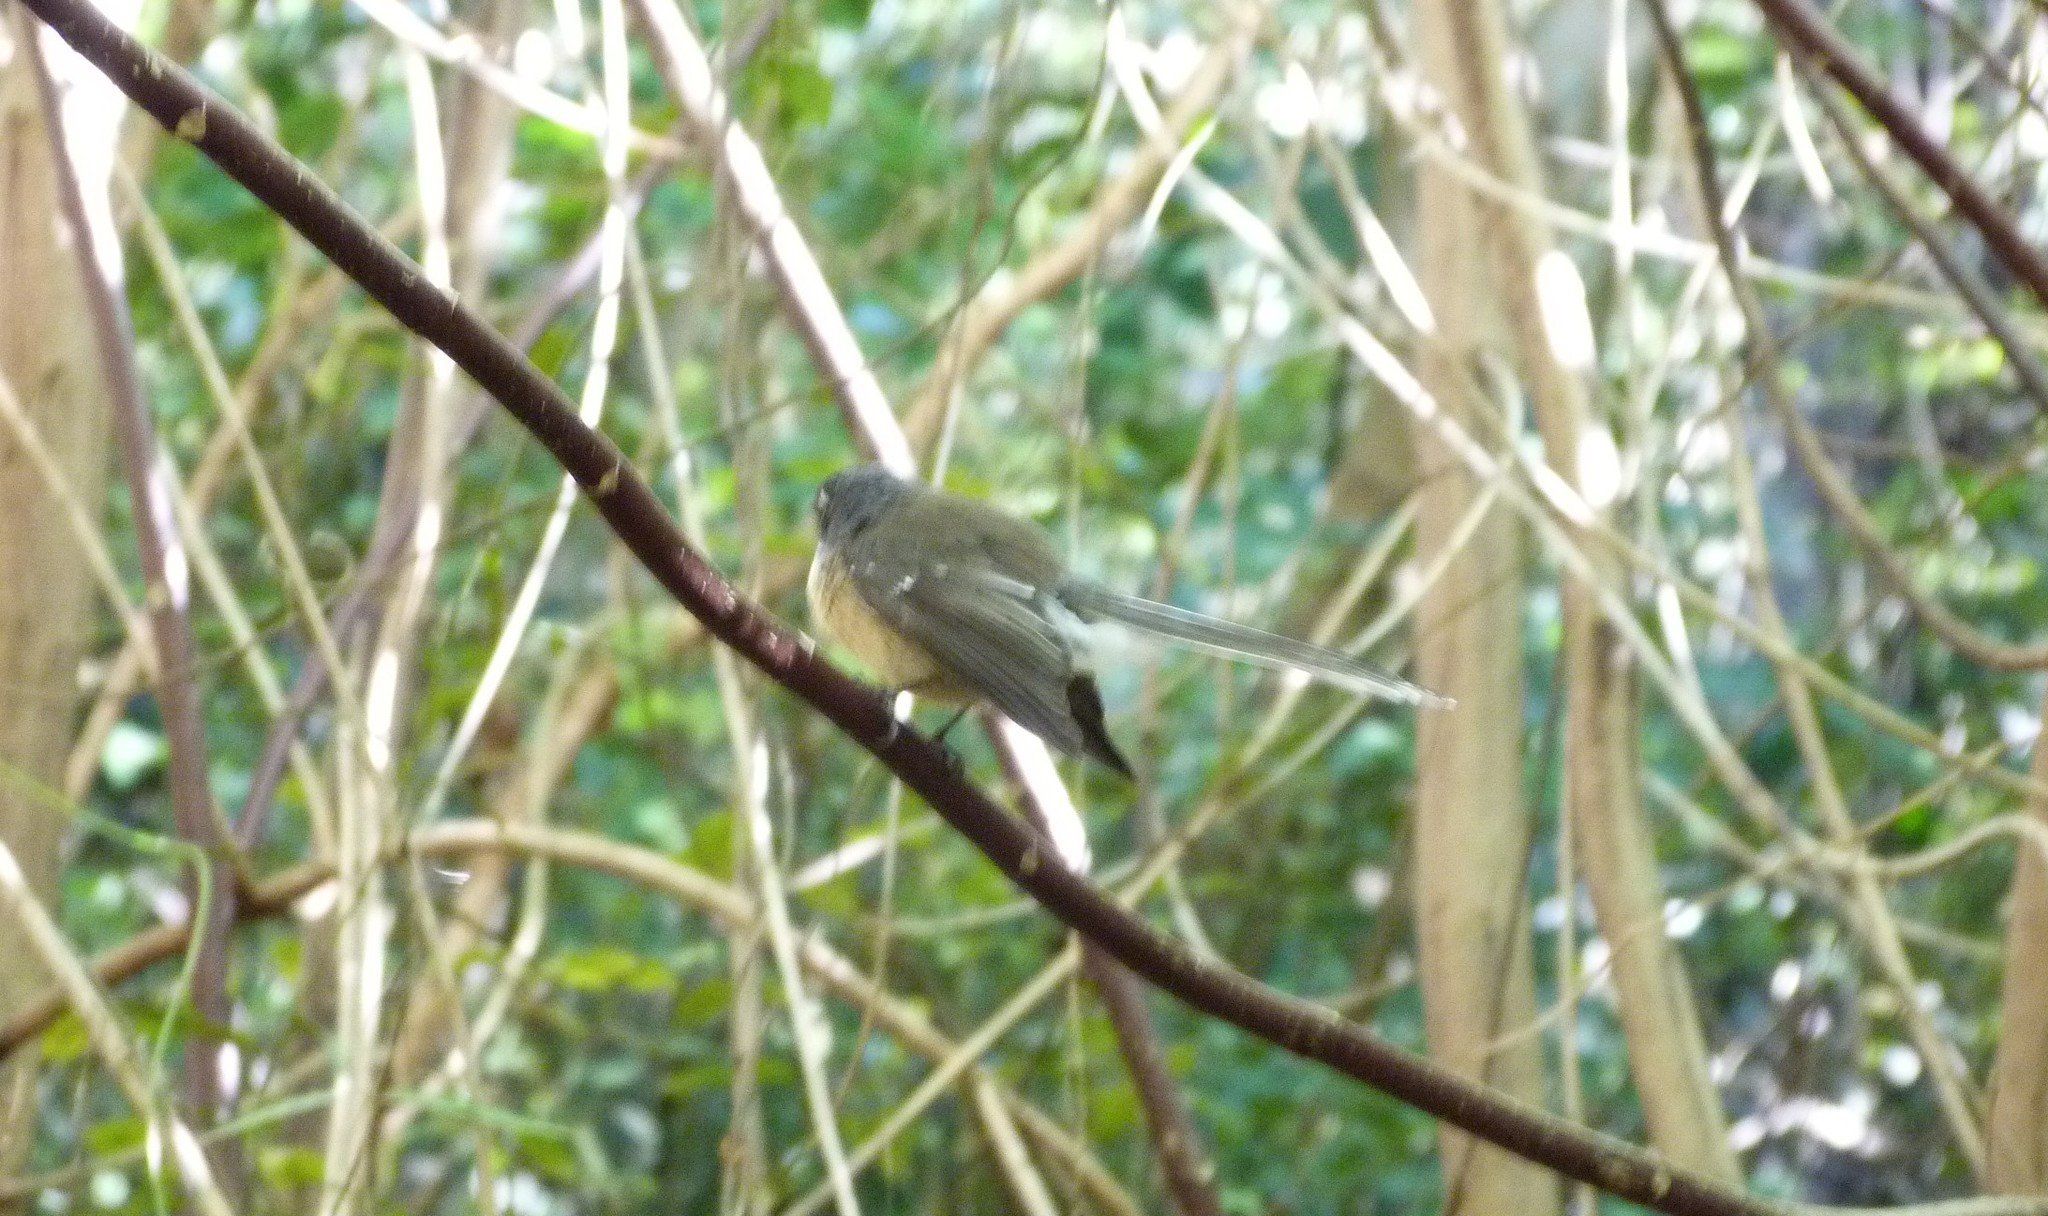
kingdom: Animalia
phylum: Chordata
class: Aves
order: Passeriformes
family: Rhipiduridae
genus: Rhipidura
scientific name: Rhipidura fuliginosa
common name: New zealand fantail
